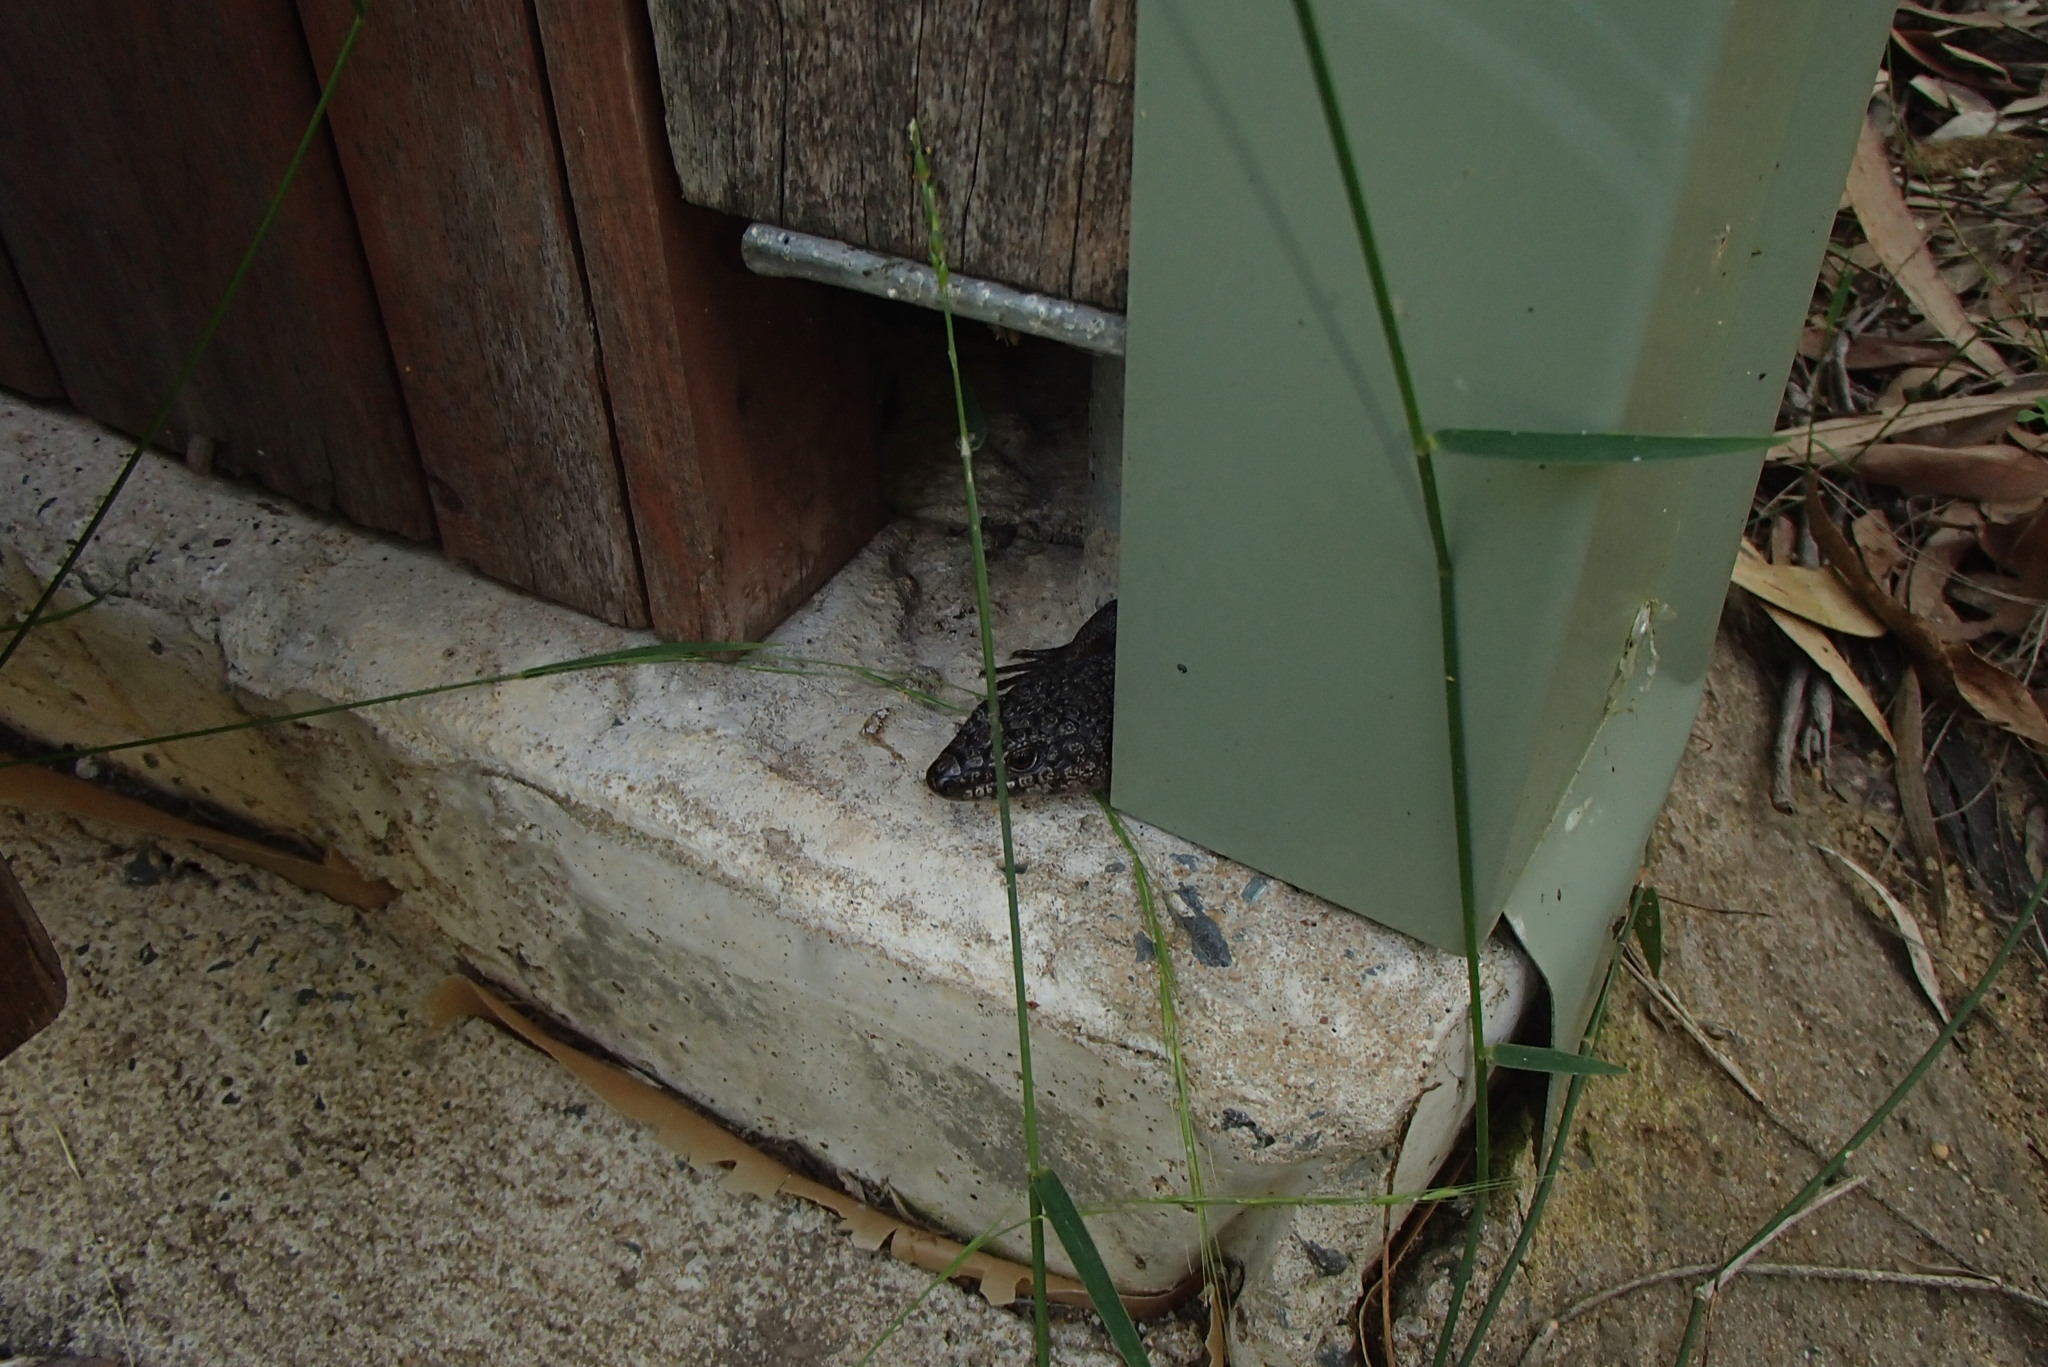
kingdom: Animalia
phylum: Chordata
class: Squamata
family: Scincidae
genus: Egernia
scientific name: Egernia saxatilis
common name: Black crevice-skink
